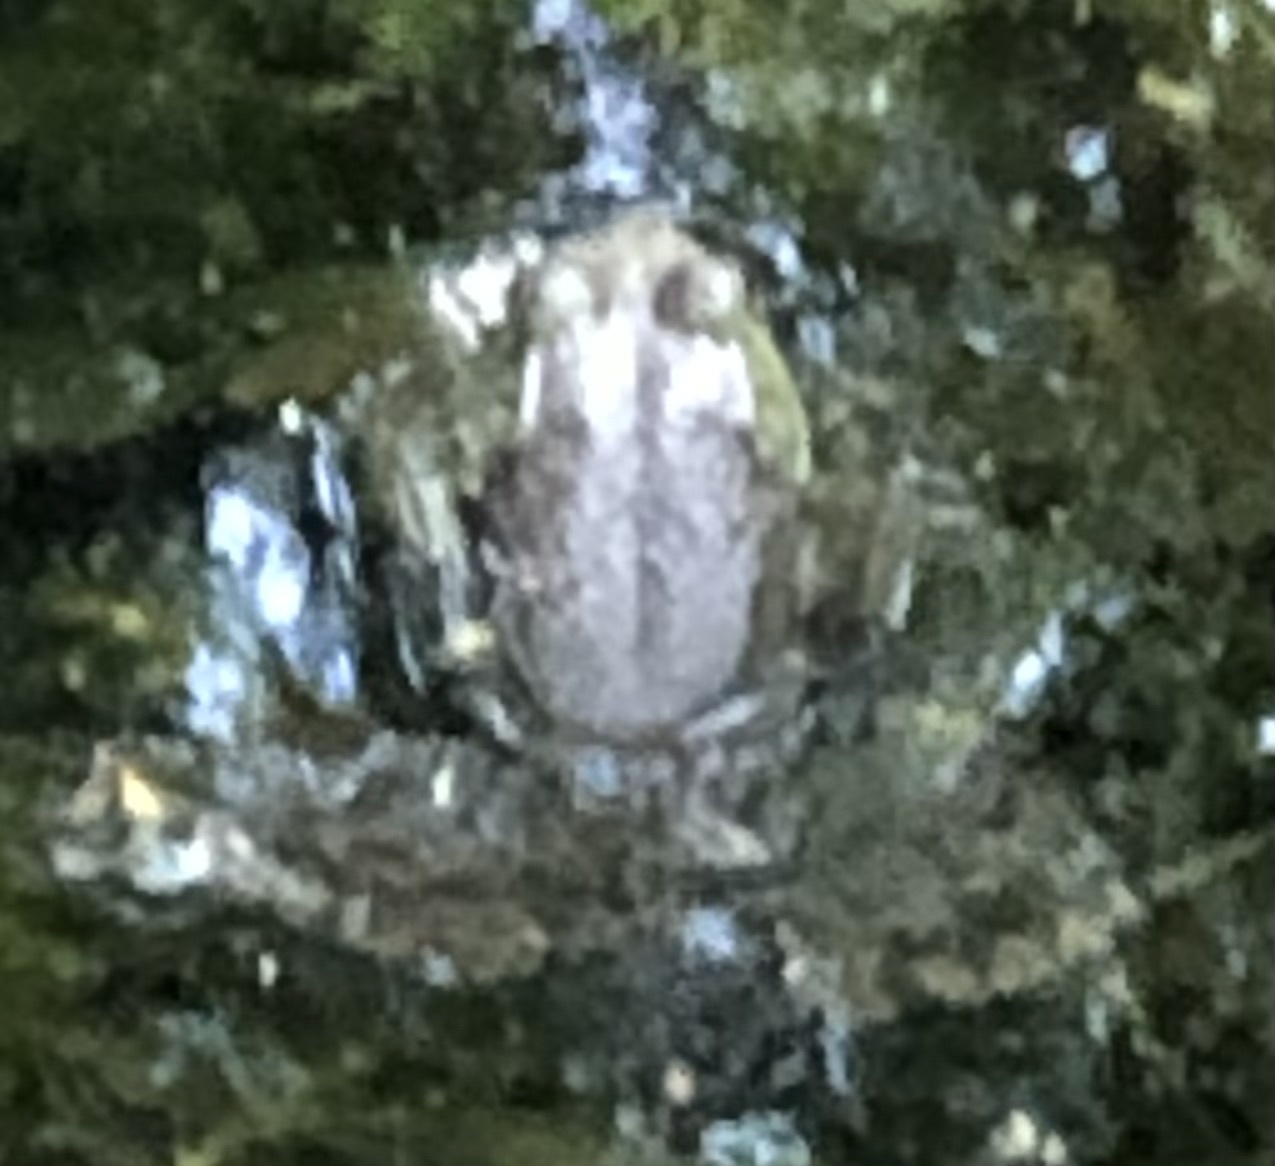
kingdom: Animalia
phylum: Chordata
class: Amphibia
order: Anura
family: Ranidae
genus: Lithobates
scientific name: Lithobates catesbeianus
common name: American bullfrog
